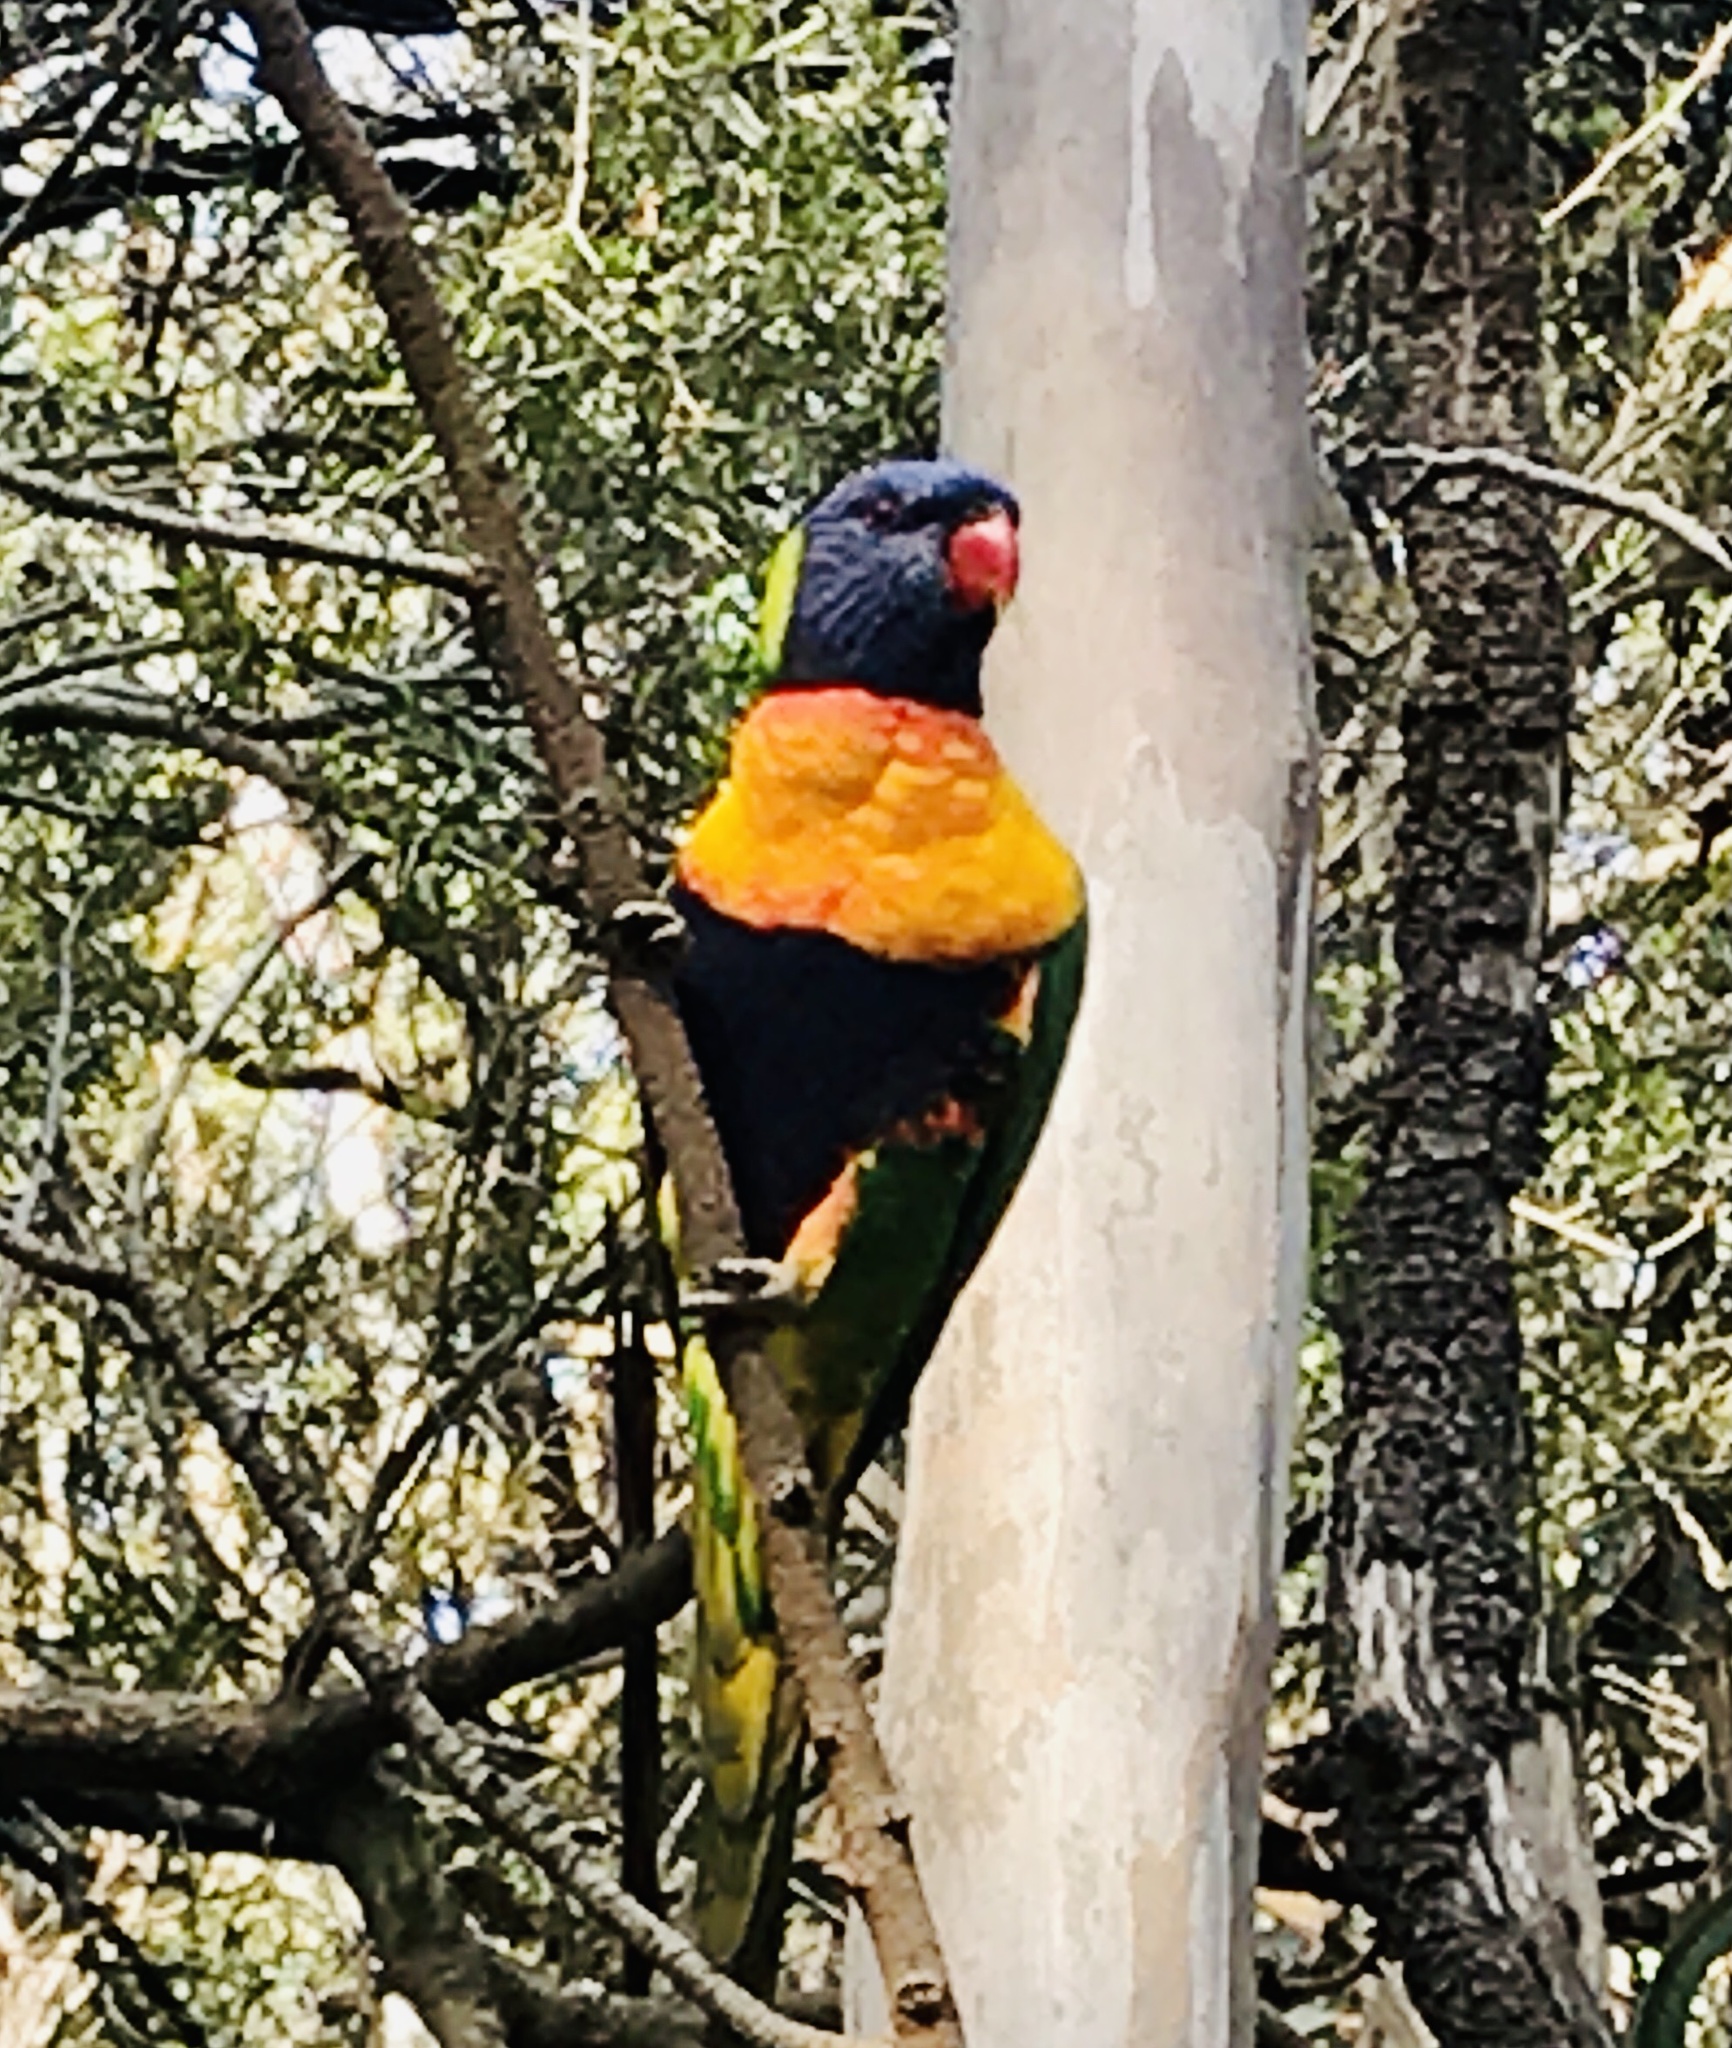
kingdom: Animalia
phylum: Chordata
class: Aves
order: Psittaciformes
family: Psittacidae
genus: Trichoglossus
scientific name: Trichoglossus haematodus
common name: Coconut lorikeet
